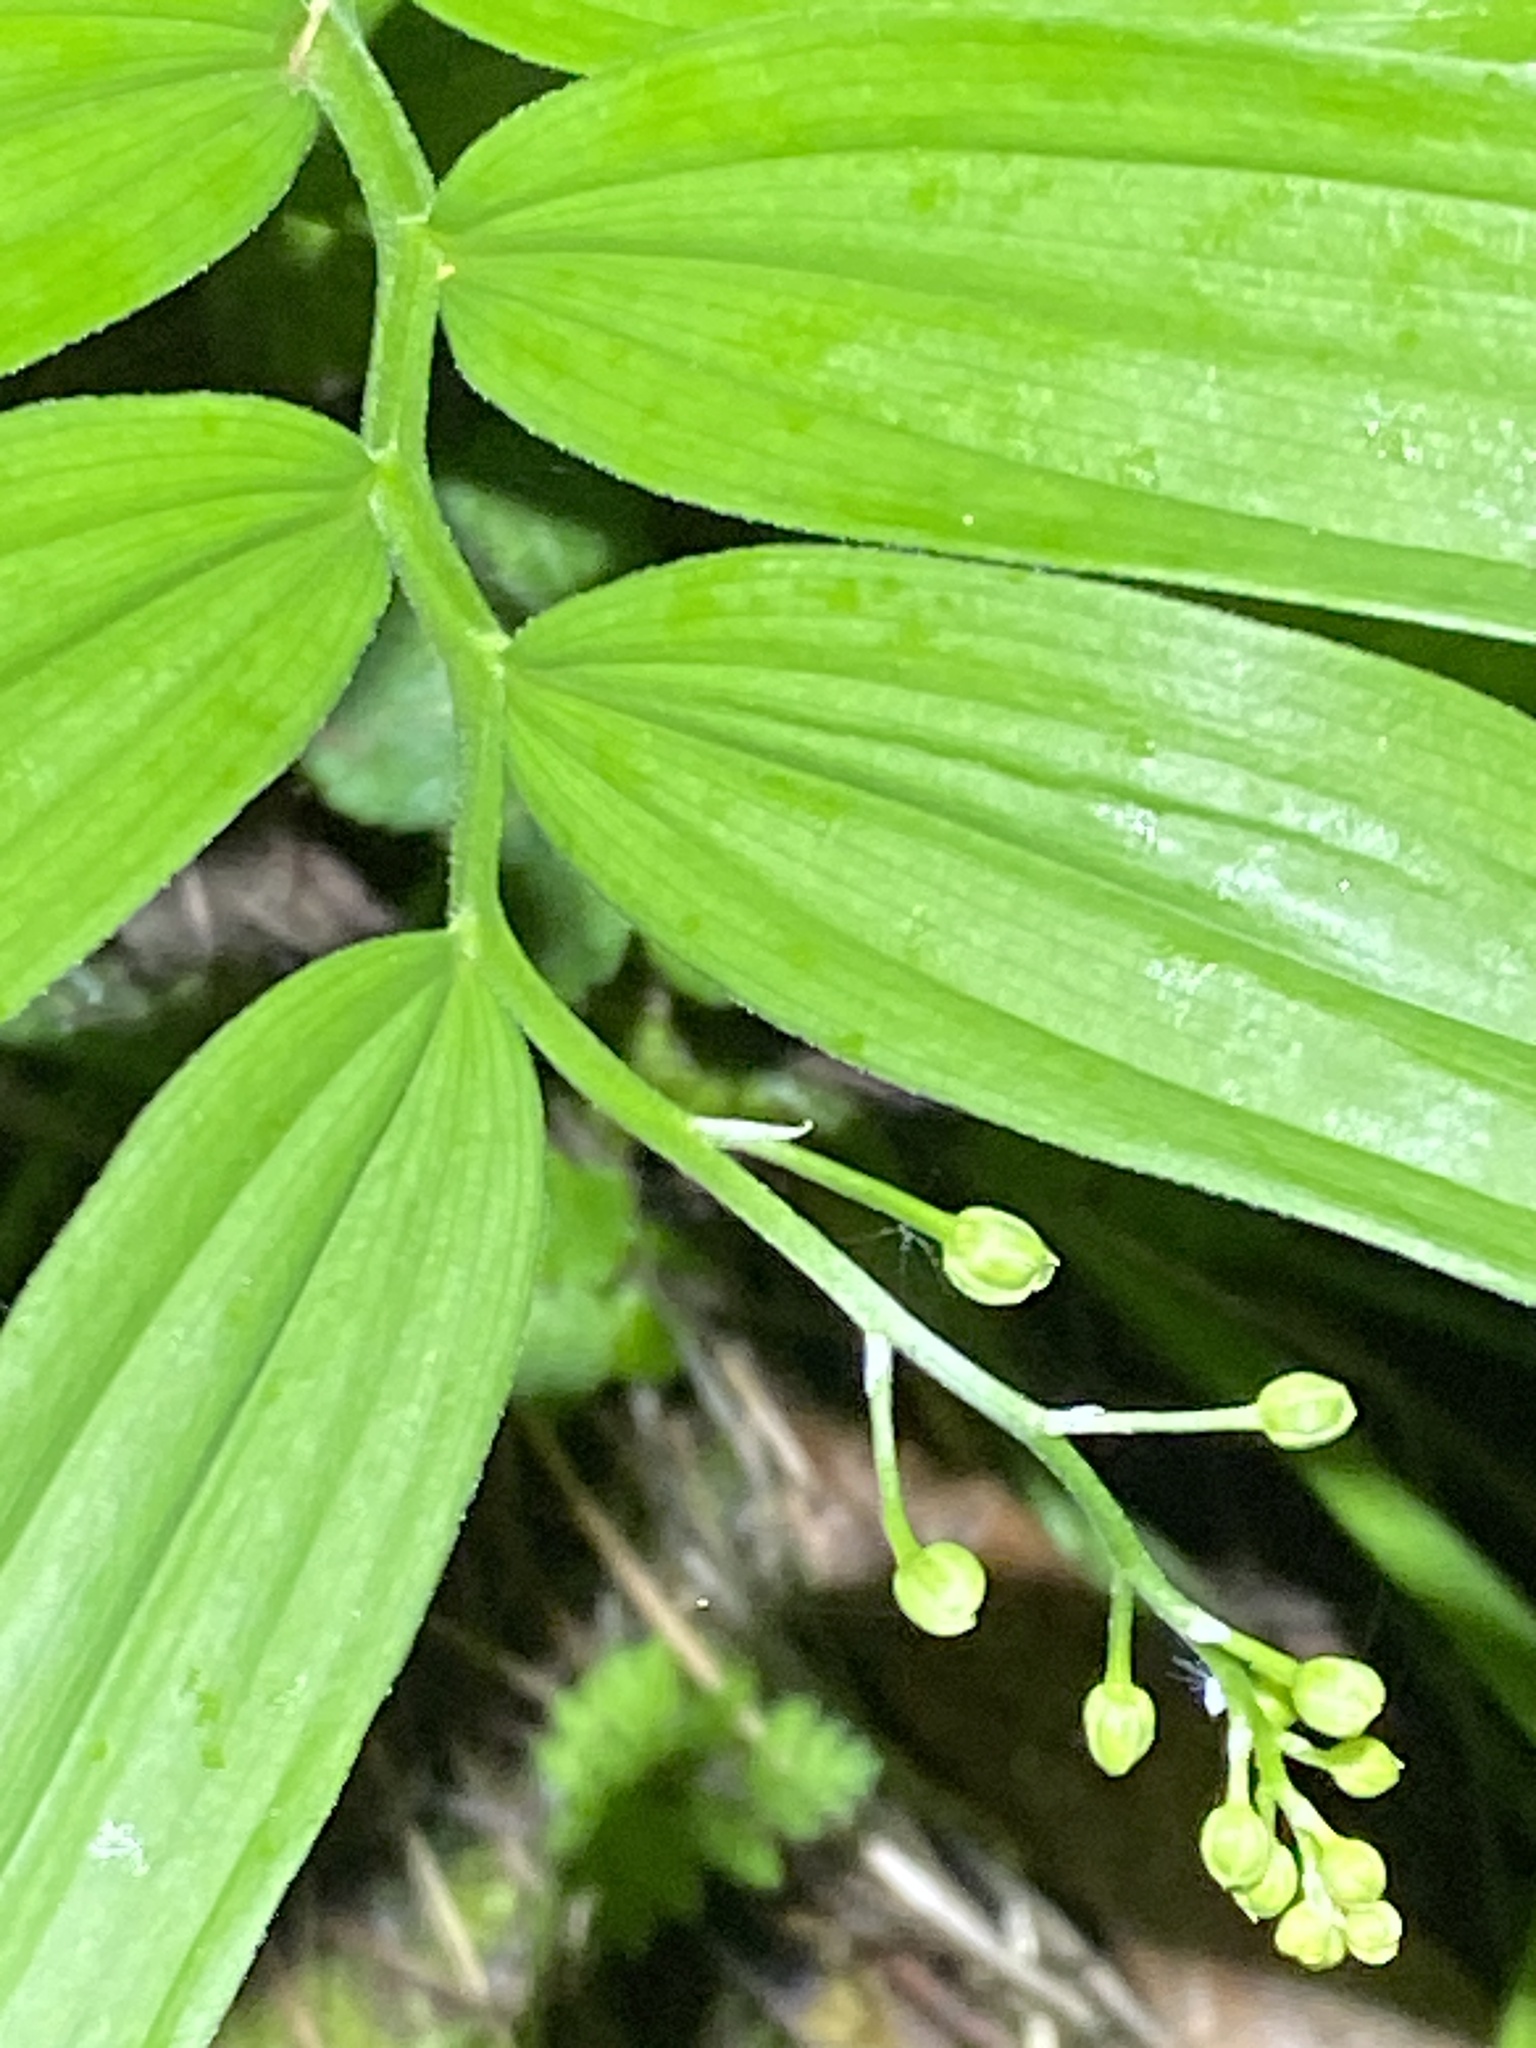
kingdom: Plantae
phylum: Tracheophyta
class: Liliopsida
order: Asparagales
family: Asparagaceae
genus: Maianthemum
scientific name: Maianthemum stellatum
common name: Little false solomon's seal
